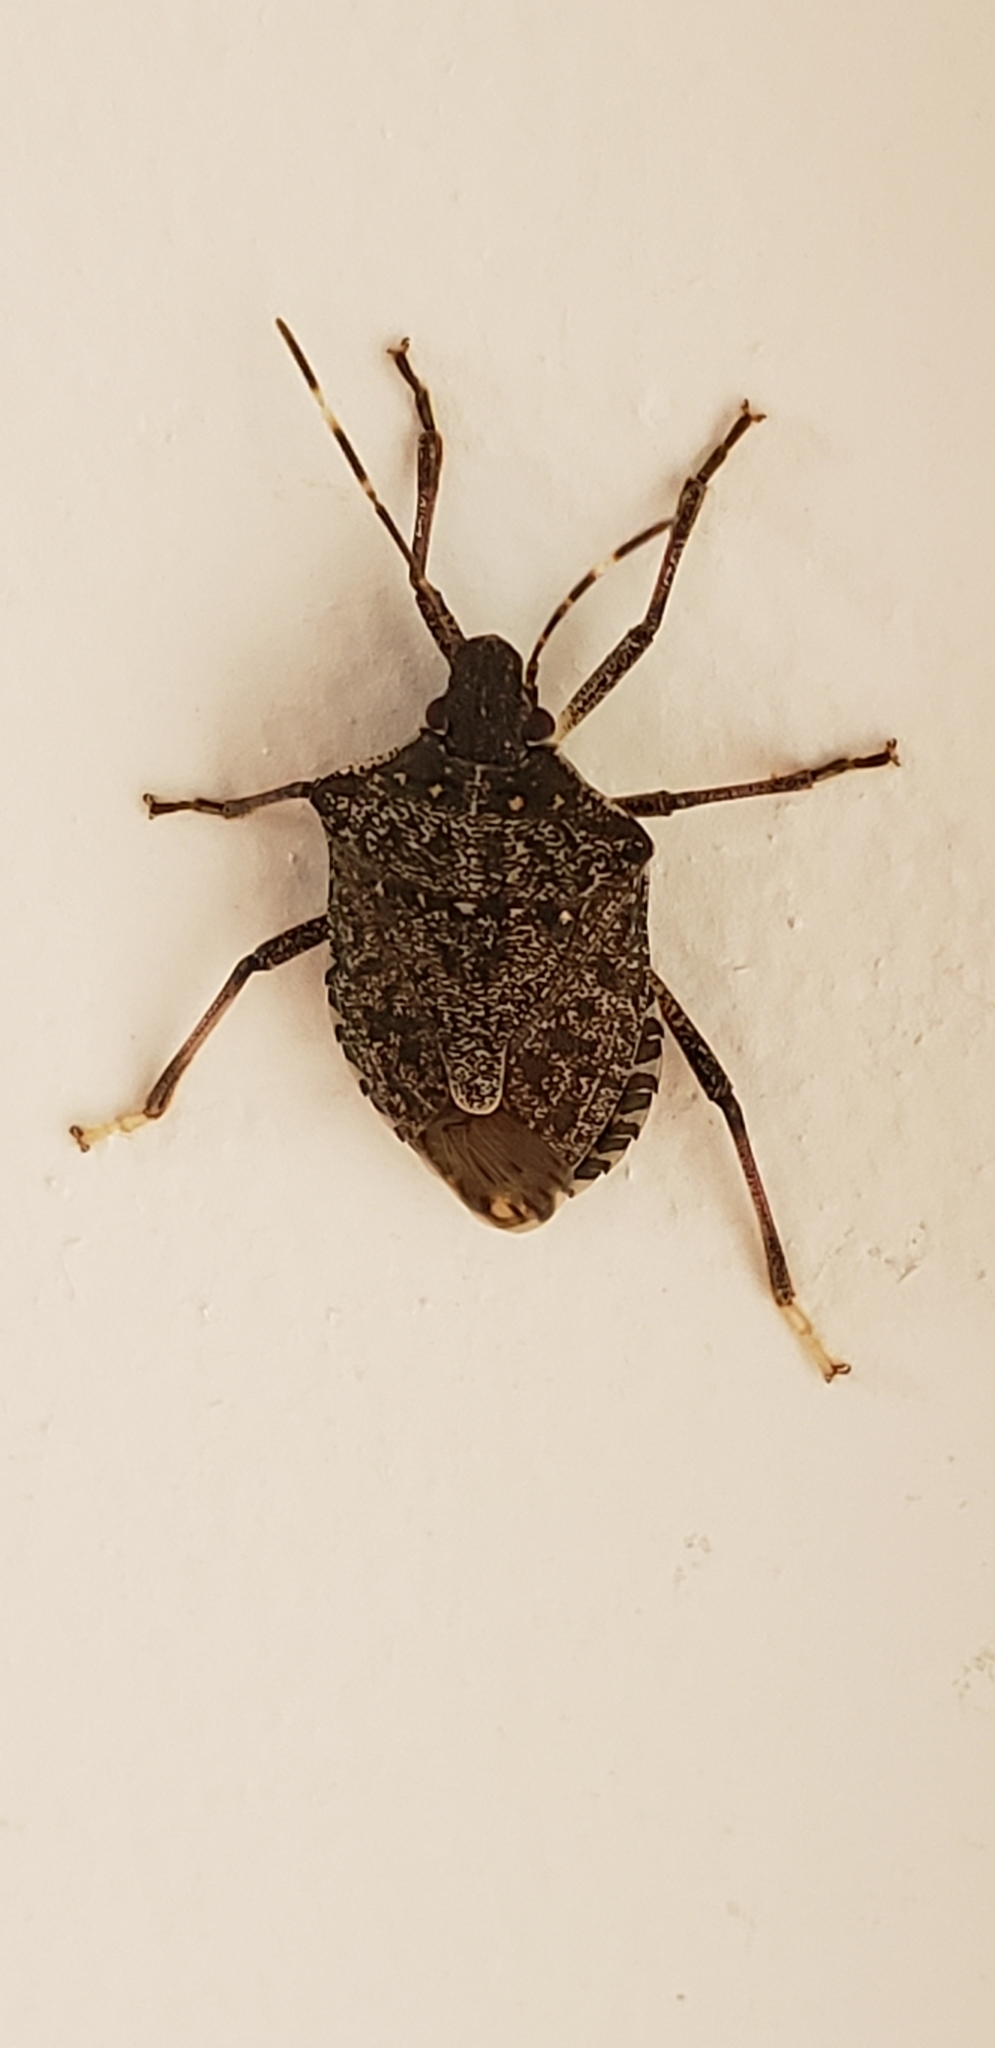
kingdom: Animalia
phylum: Arthropoda
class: Insecta
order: Hemiptera
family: Pentatomidae
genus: Halyomorpha
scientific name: Halyomorpha halys
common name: Brown marmorated stink bug
